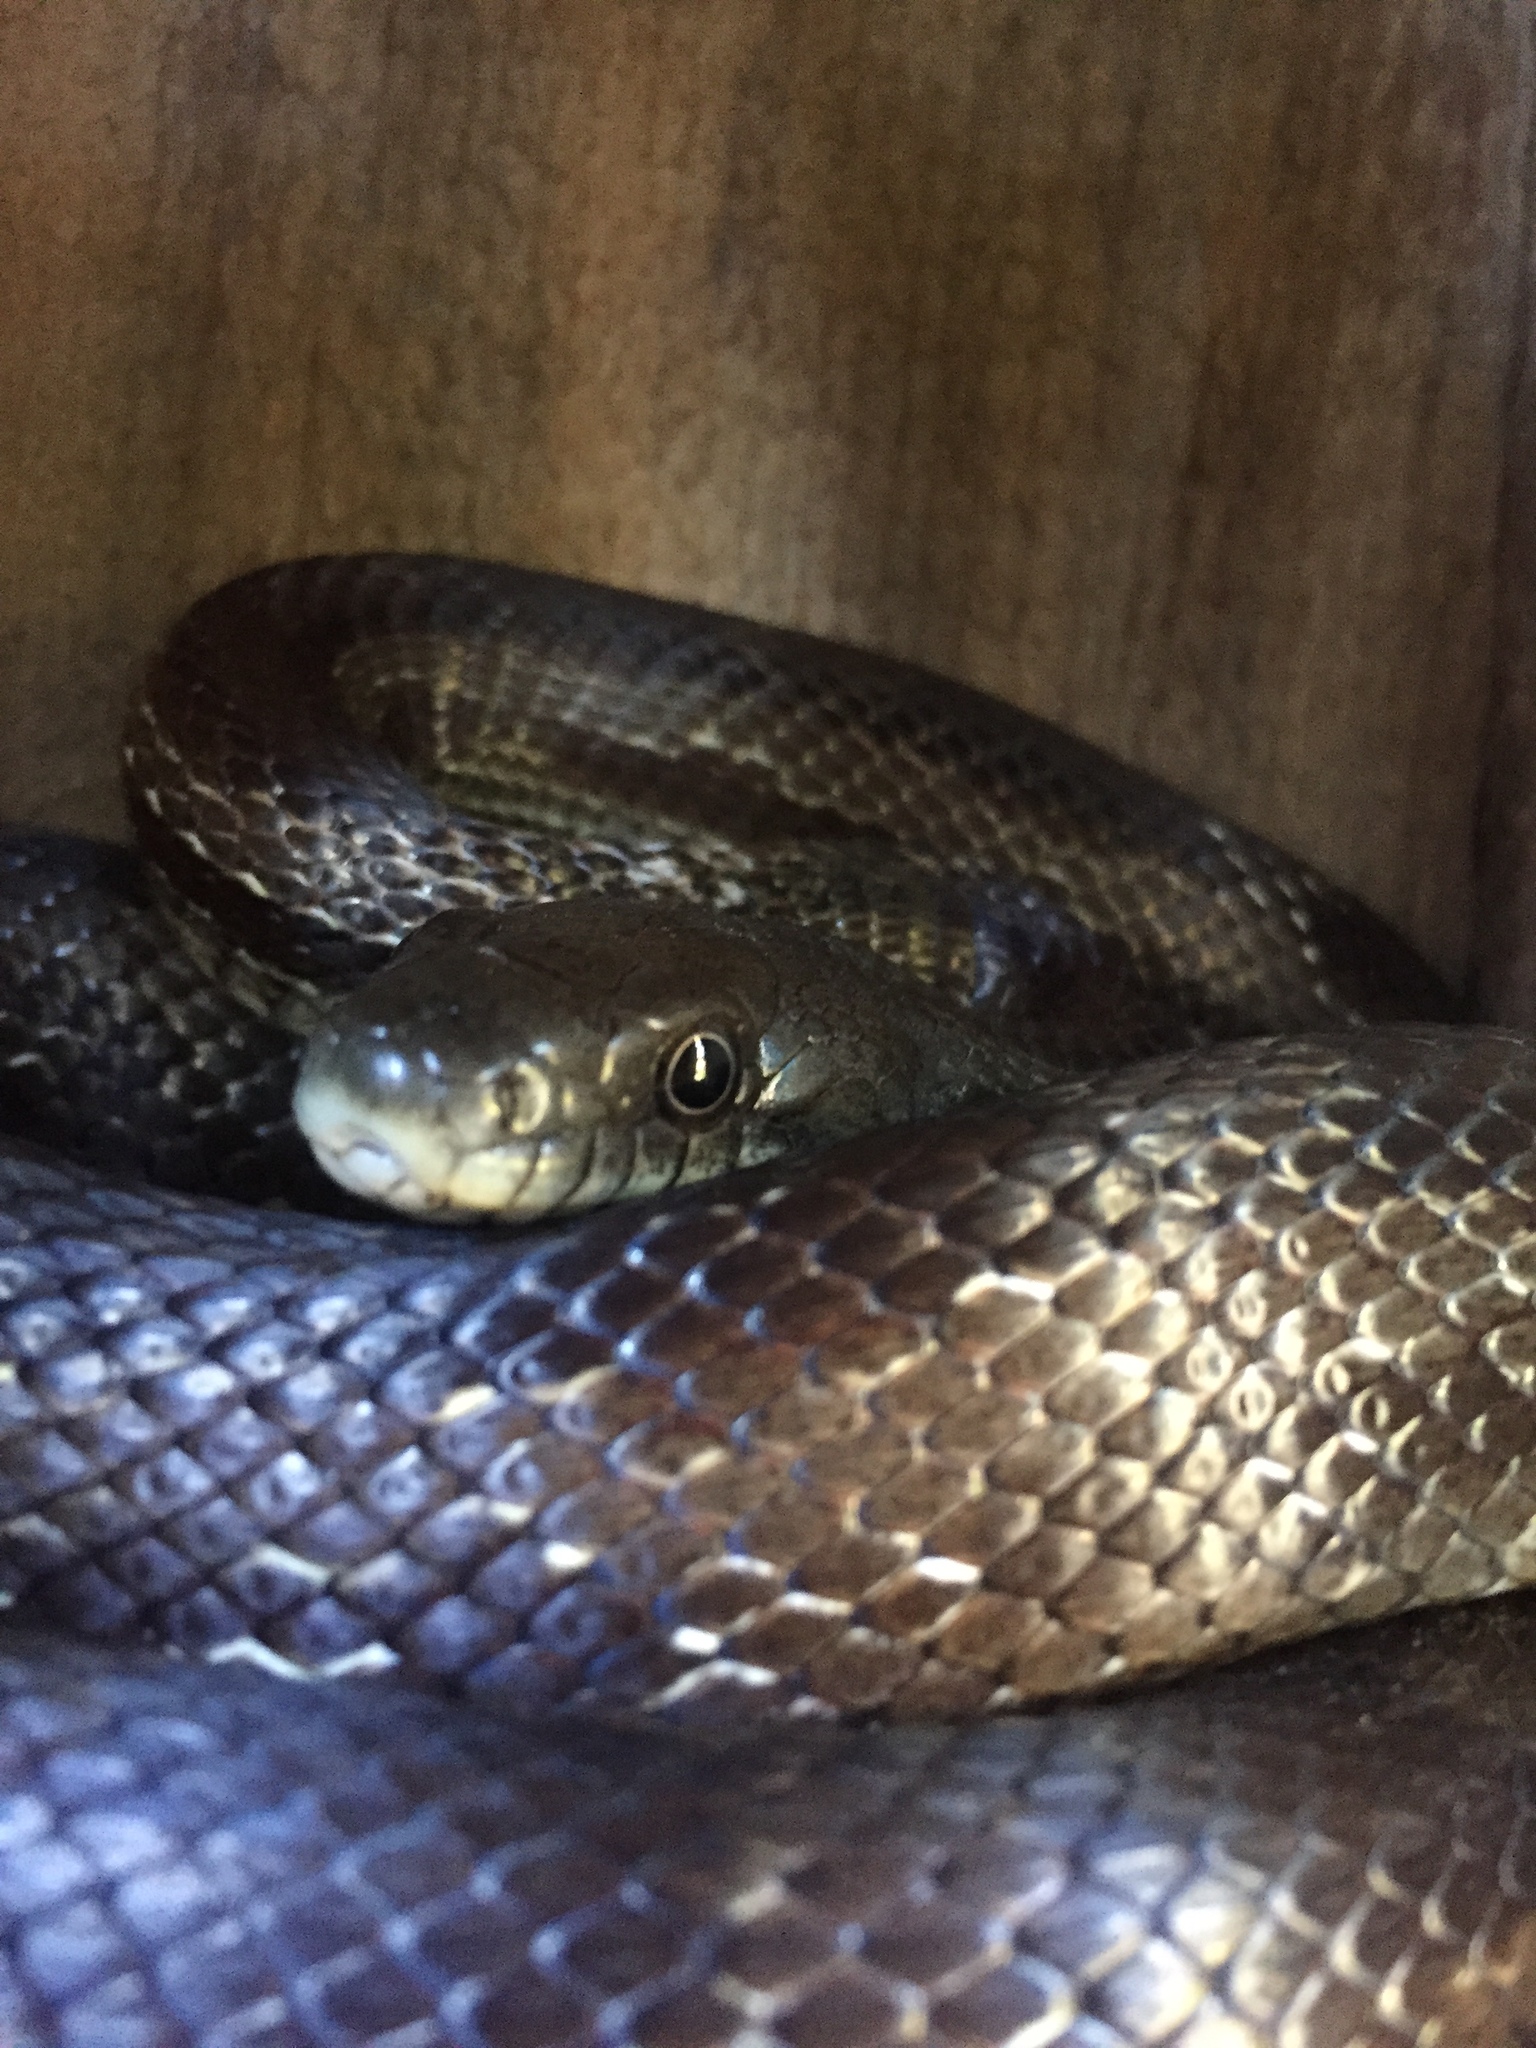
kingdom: Animalia
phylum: Chordata
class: Squamata
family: Colubridae
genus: Pantherophis
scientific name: Pantherophis alleghaniensis
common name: Eastern rat snake
